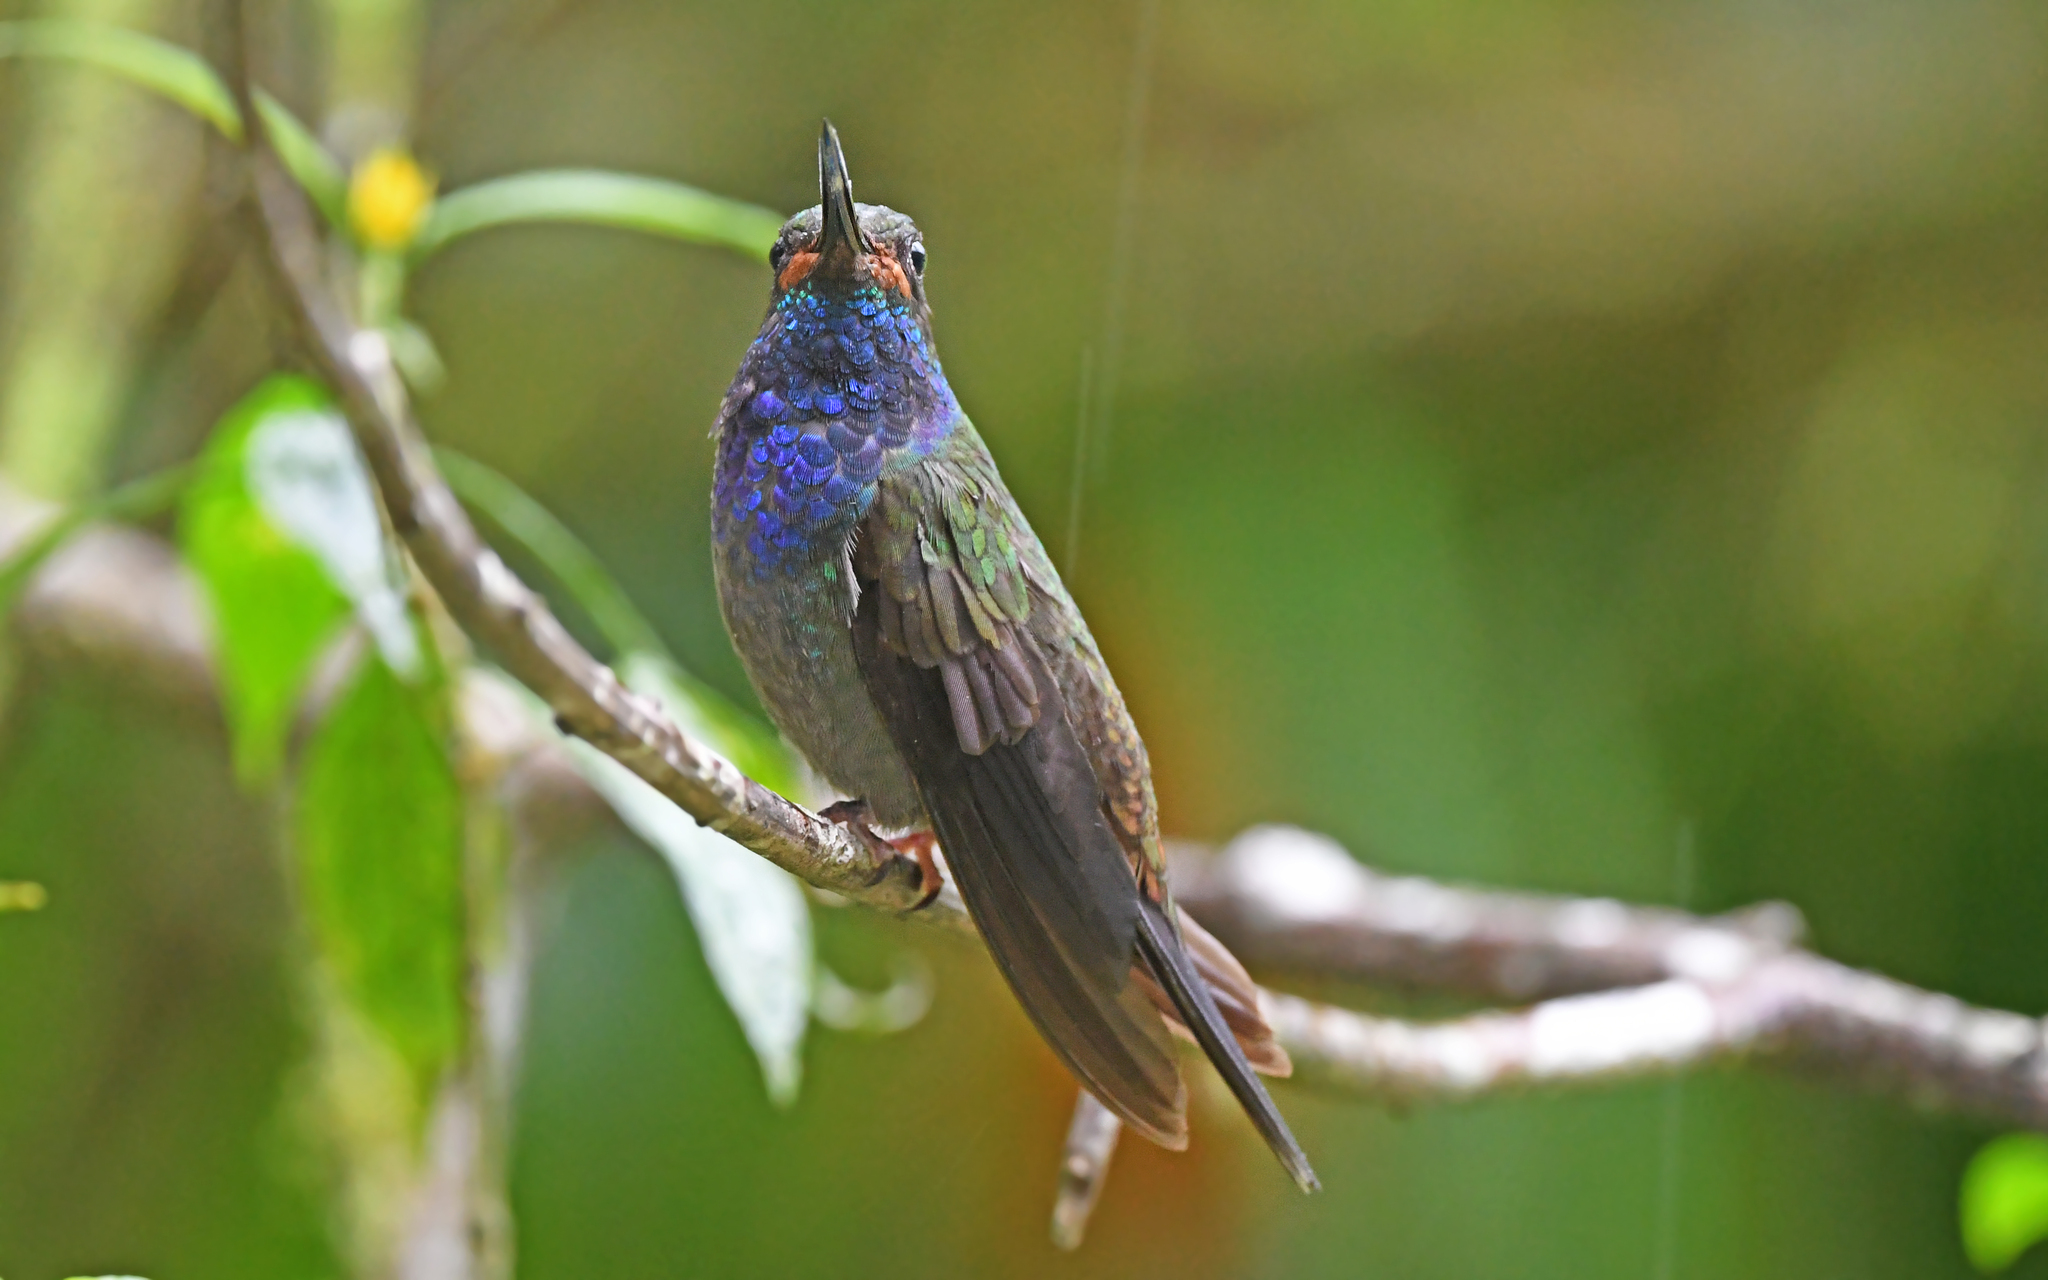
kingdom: Animalia
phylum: Chordata
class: Aves
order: Apodiformes
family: Trochilidae
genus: Urochroa
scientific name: Urochroa bougueri
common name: White-tailed hillstar
